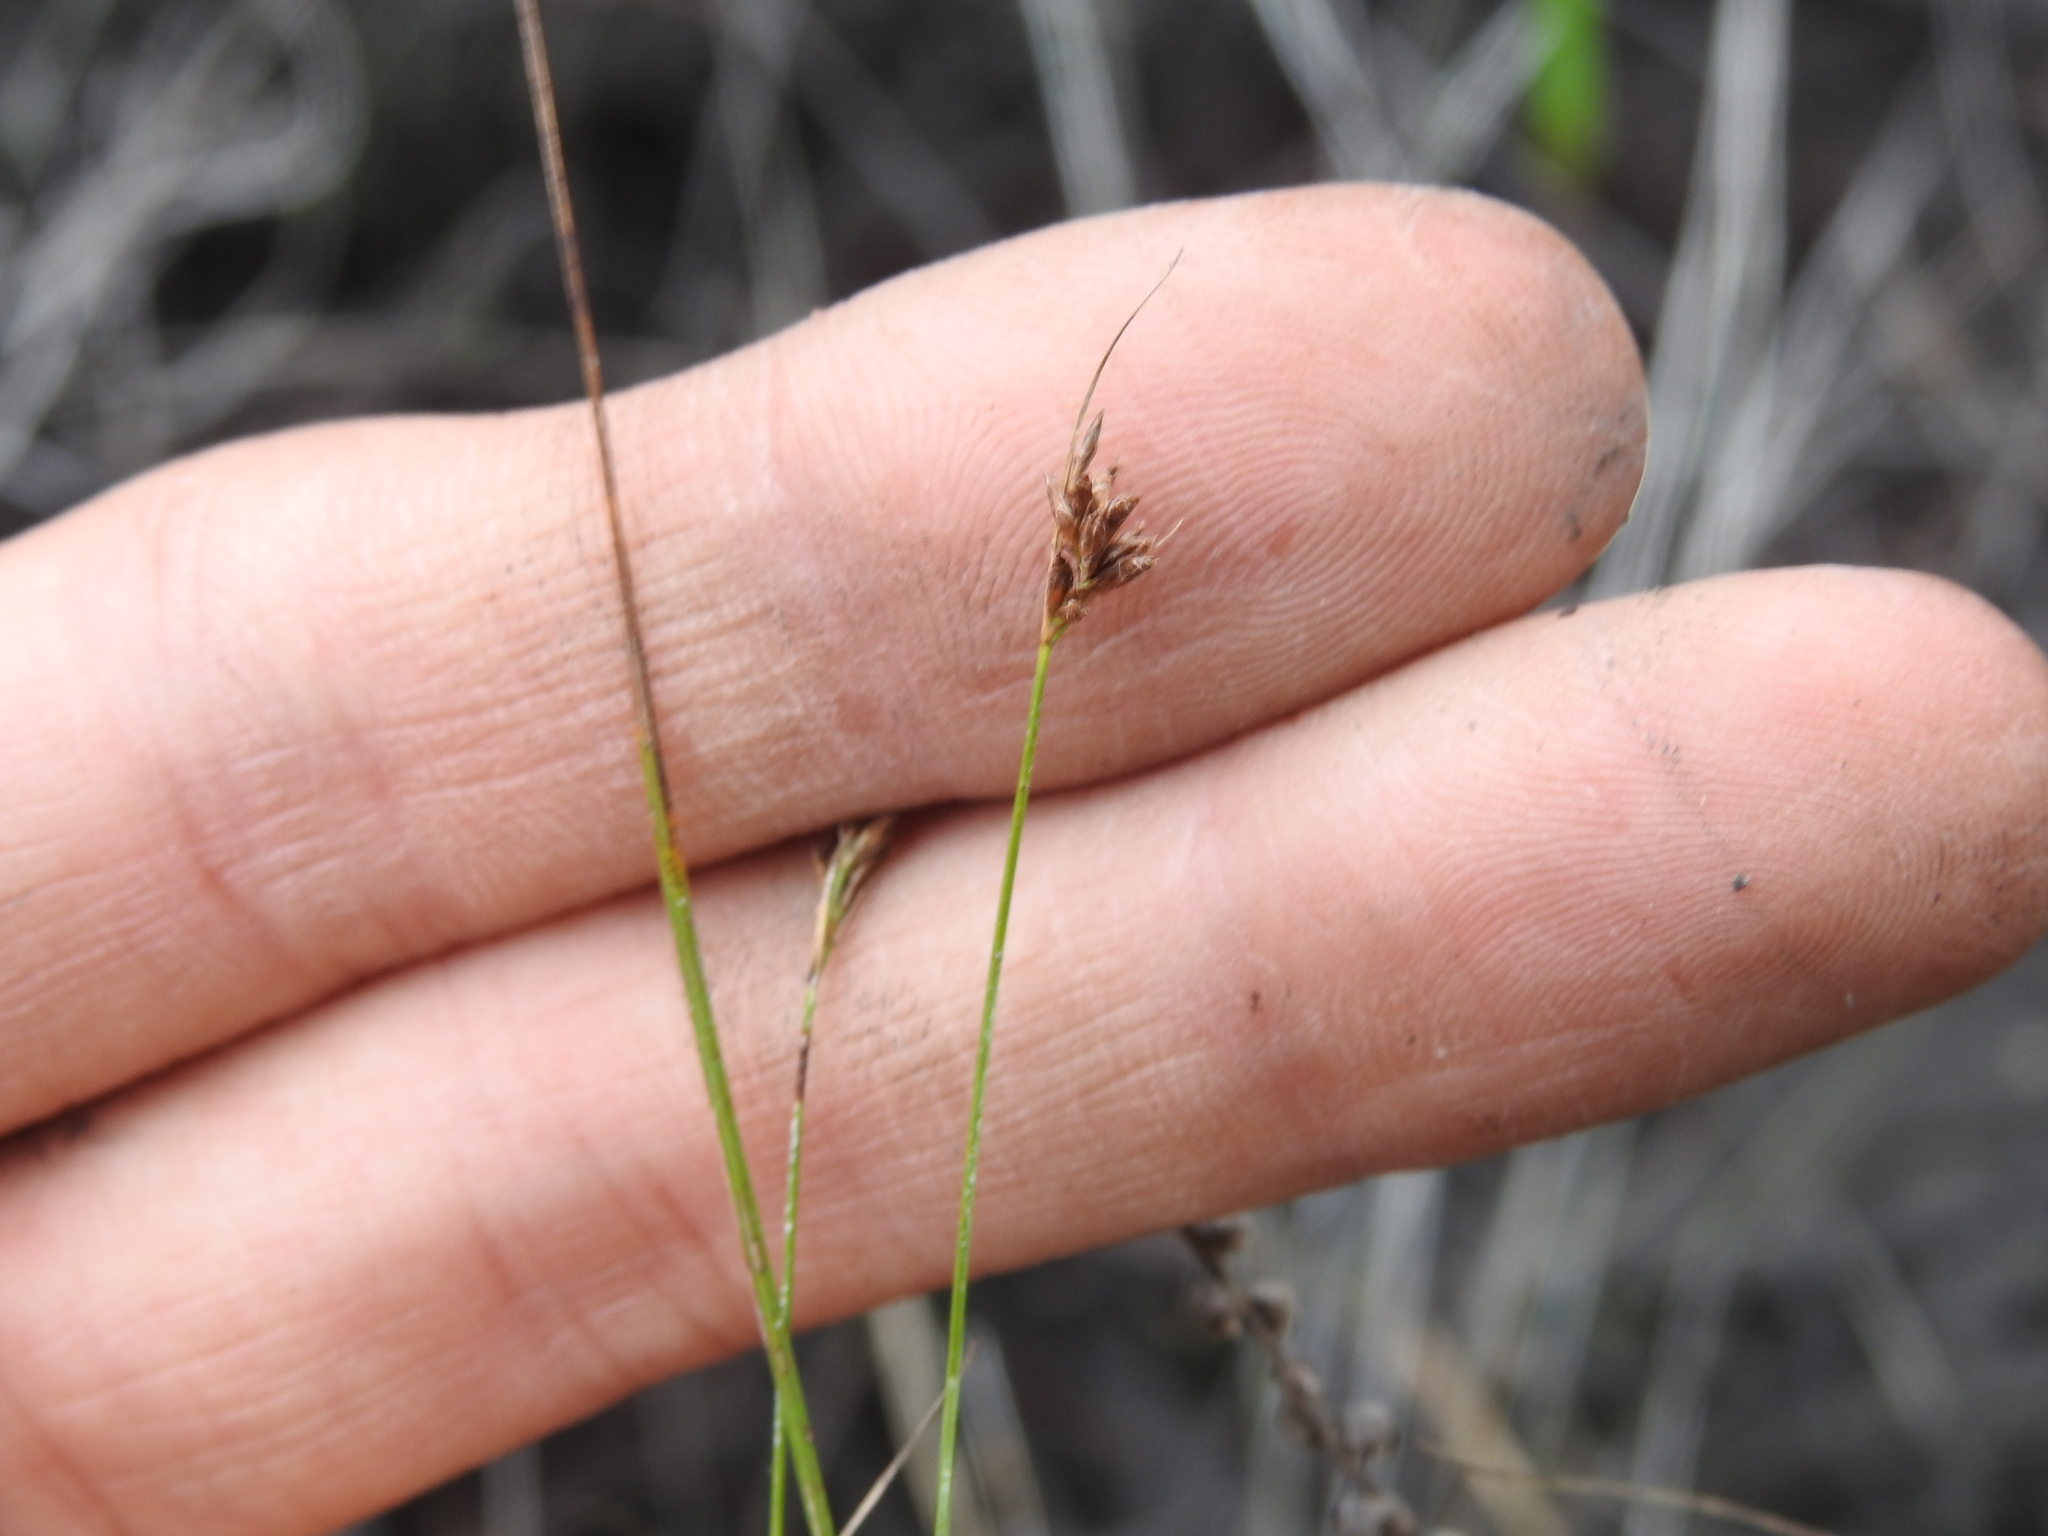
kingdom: Plantae
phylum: Tracheophyta
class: Liliopsida
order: Poales
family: Cyperaceae
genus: Rhynchospora
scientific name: Rhynchospora divergens
